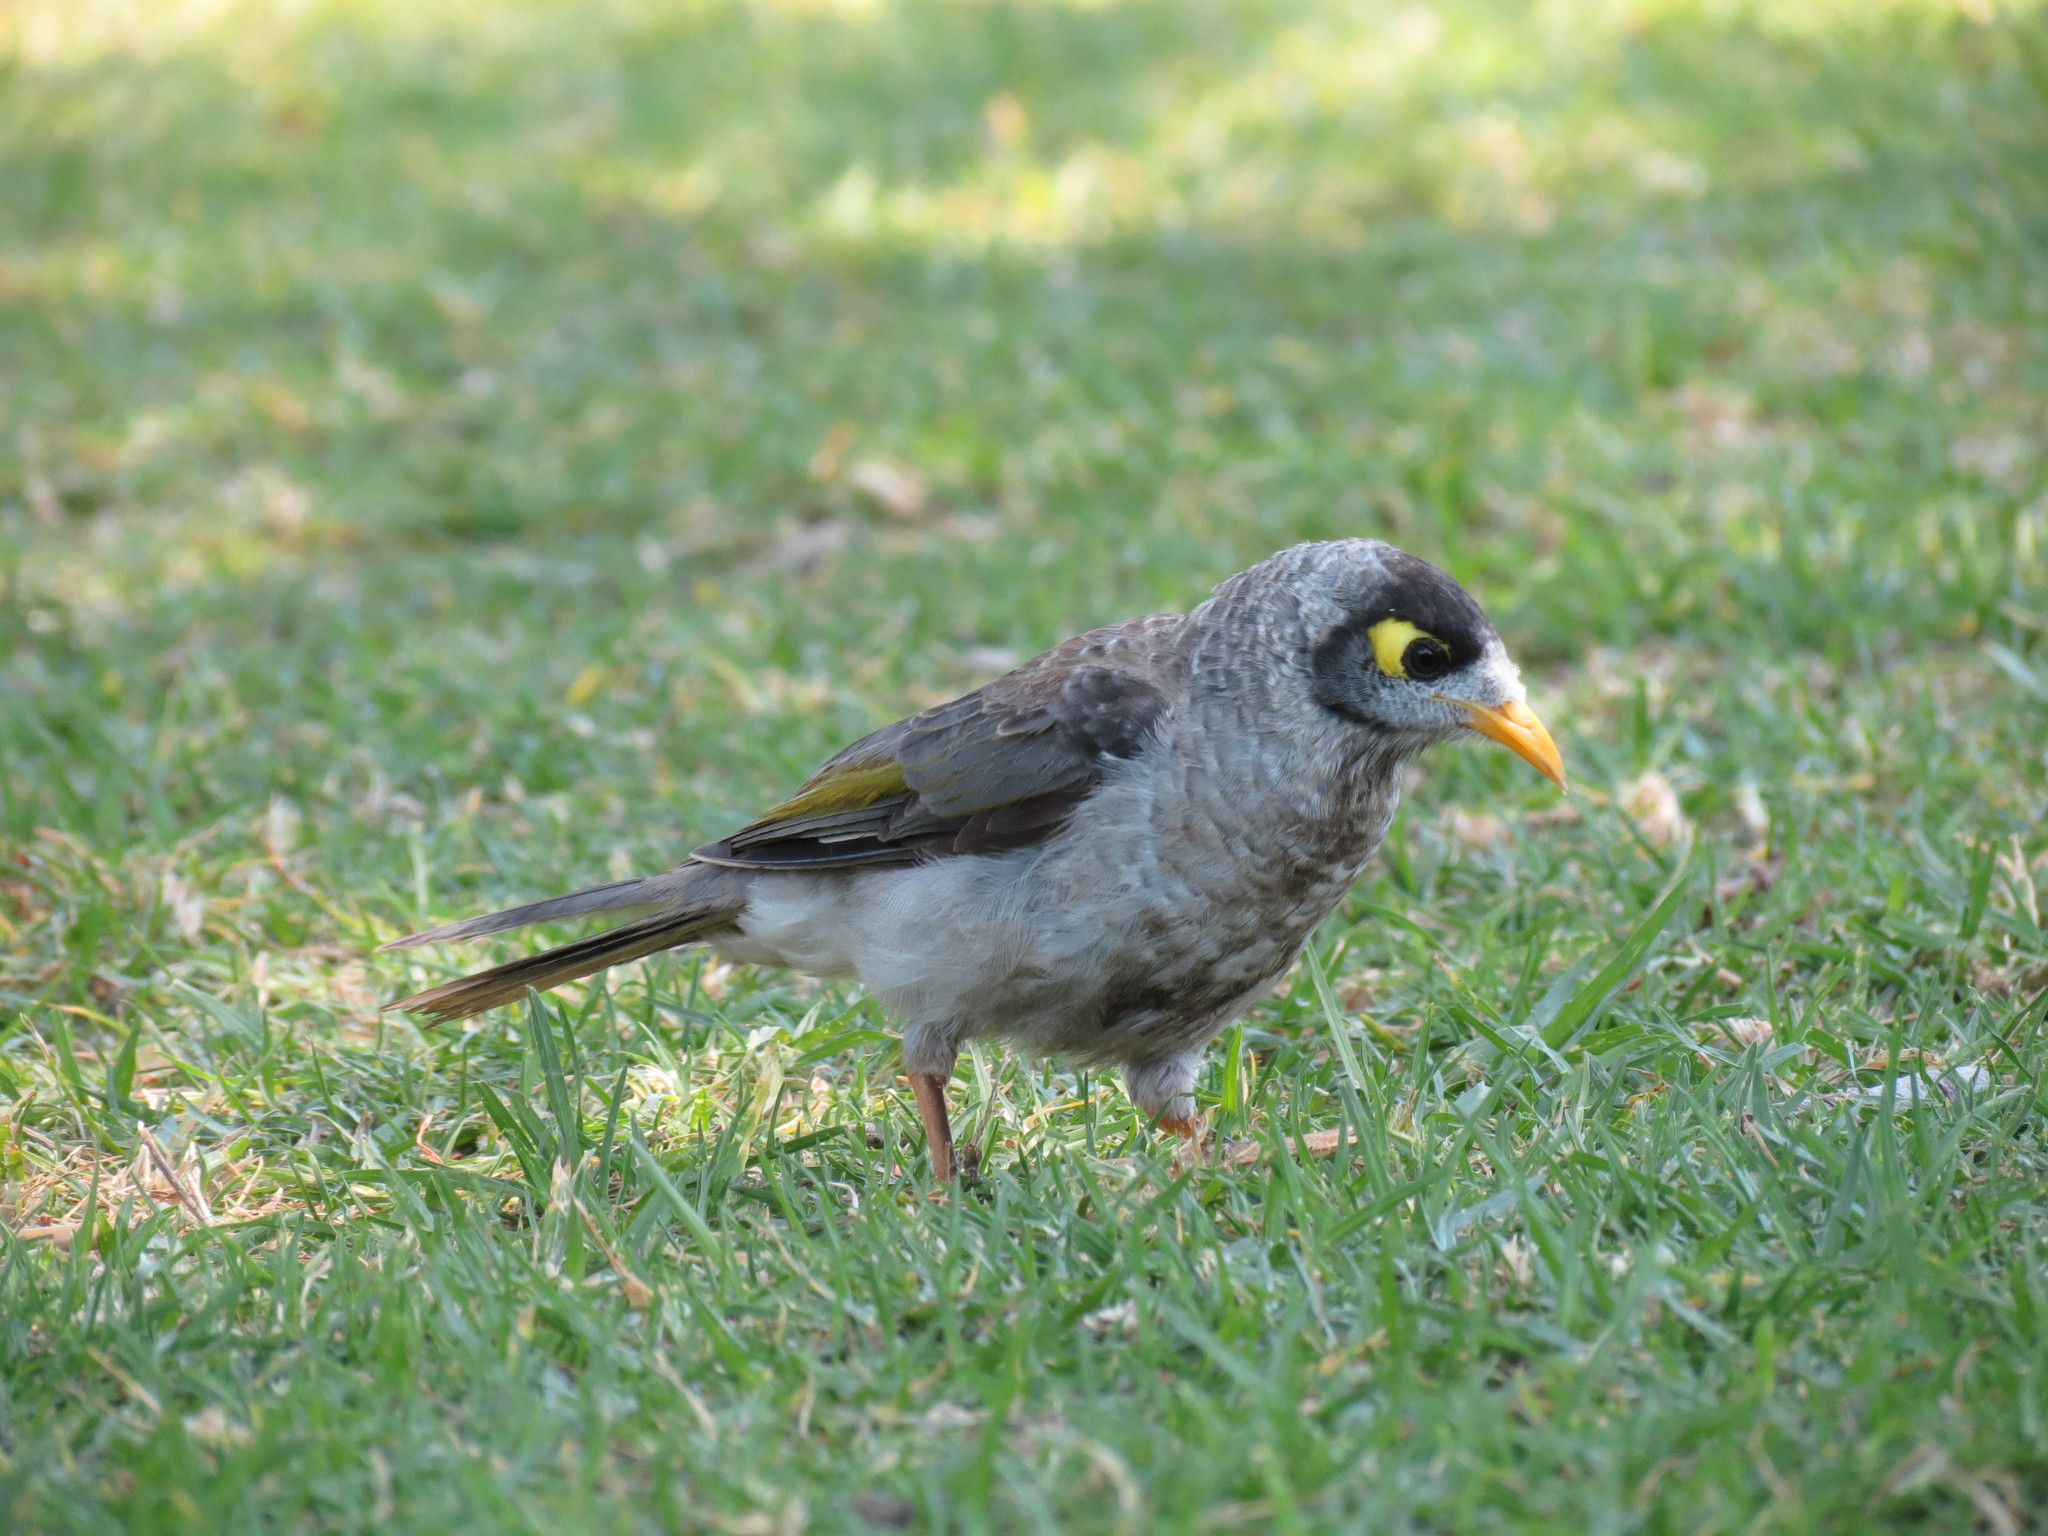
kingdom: Animalia
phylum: Chordata
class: Aves
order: Passeriformes
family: Meliphagidae
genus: Manorina
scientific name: Manorina melanocephala
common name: Noisy miner
